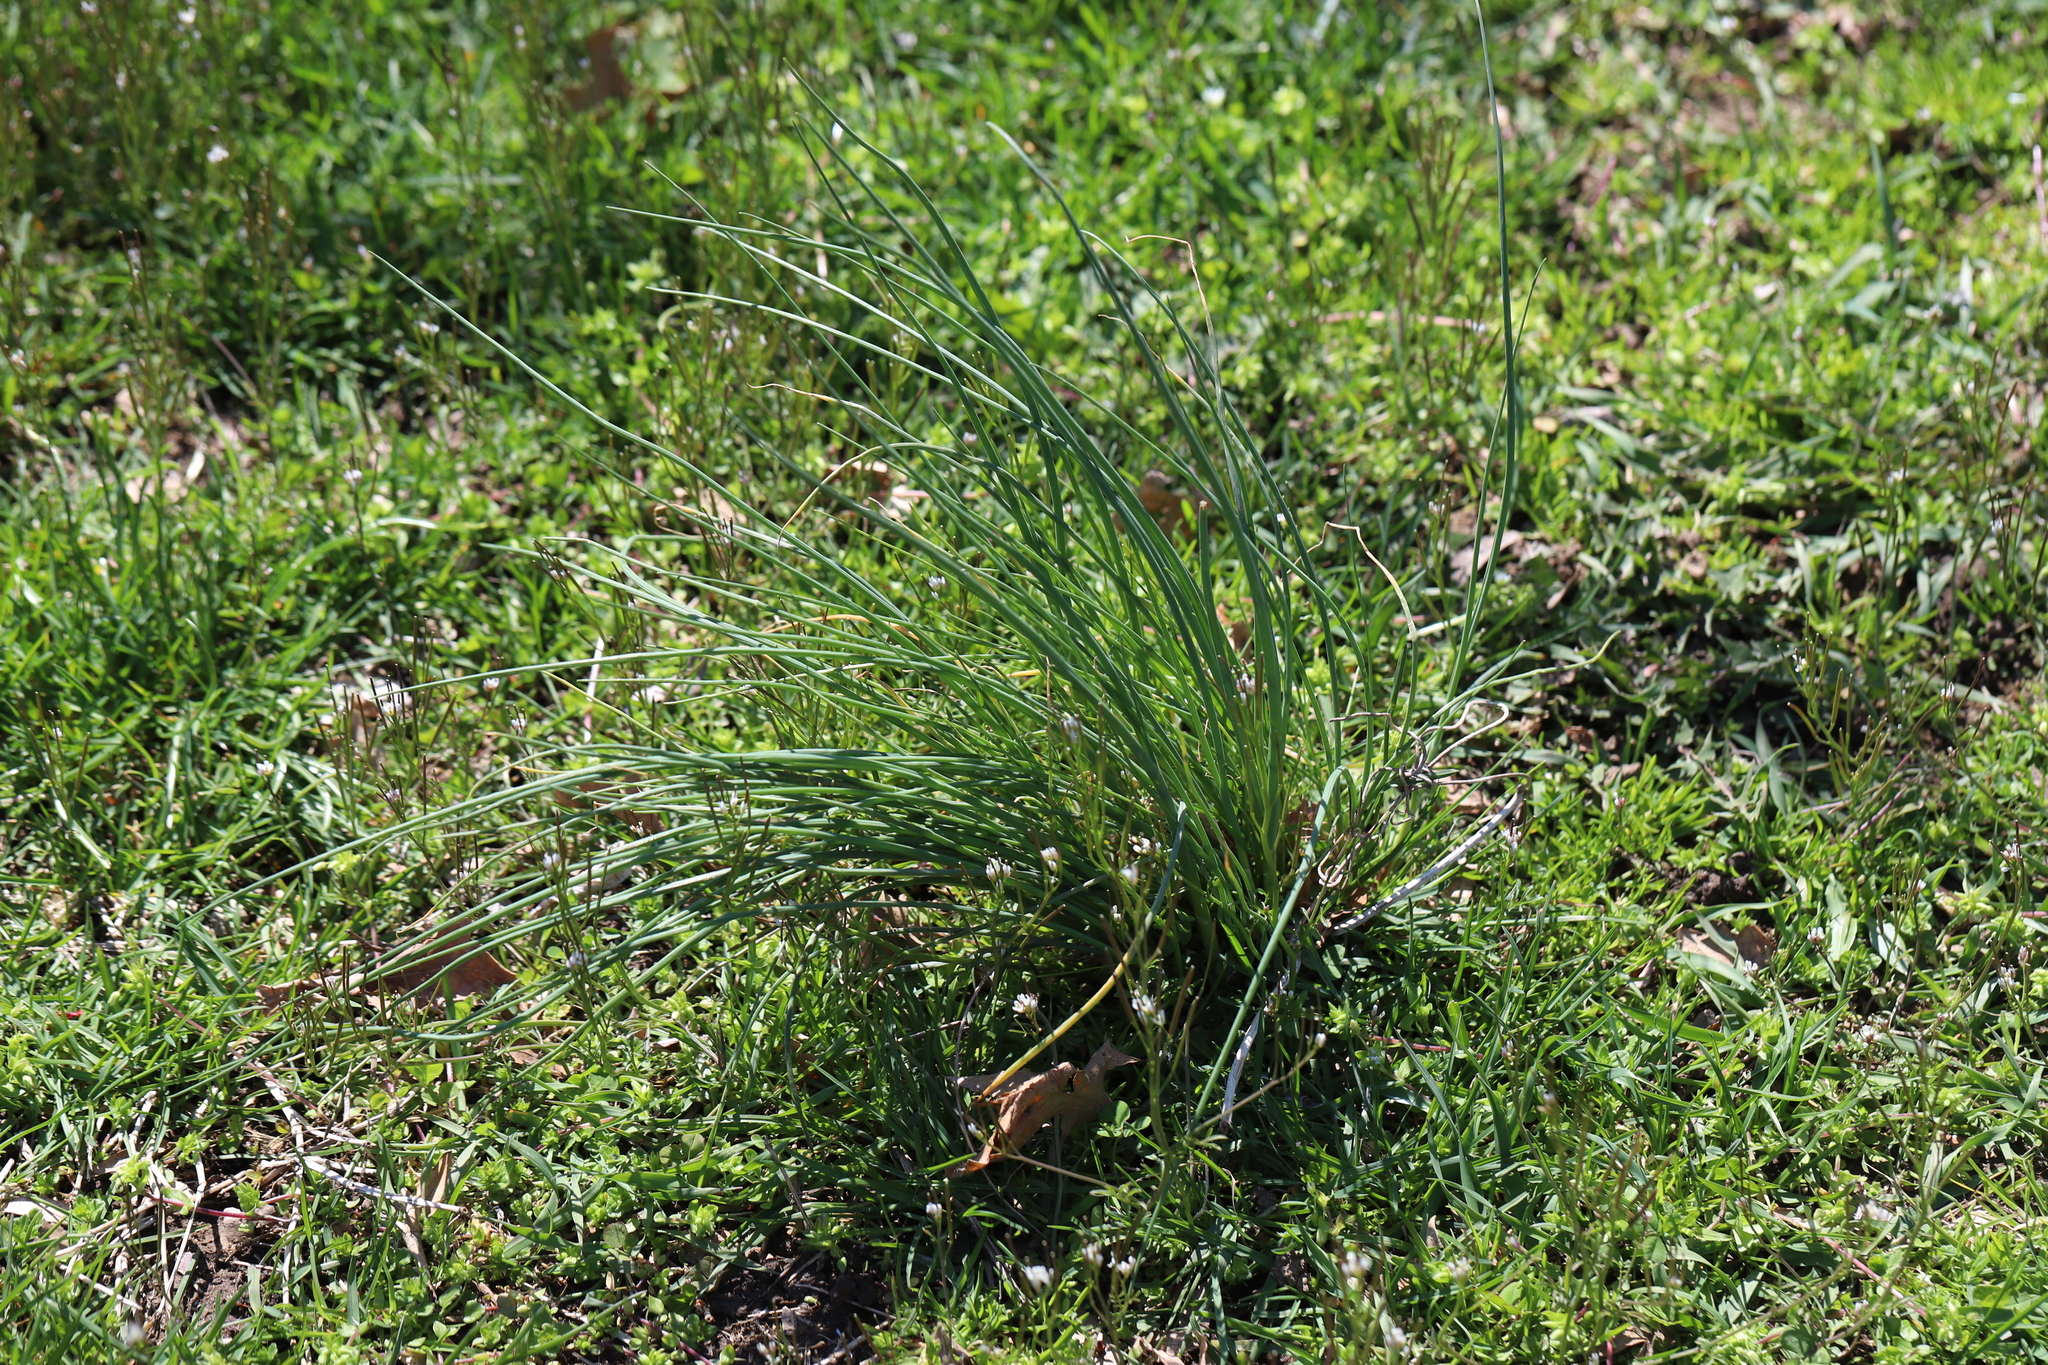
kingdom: Plantae
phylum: Tracheophyta
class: Liliopsida
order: Asparagales
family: Amaryllidaceae
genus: Allium
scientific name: Allium vineale
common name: Crow garlic
